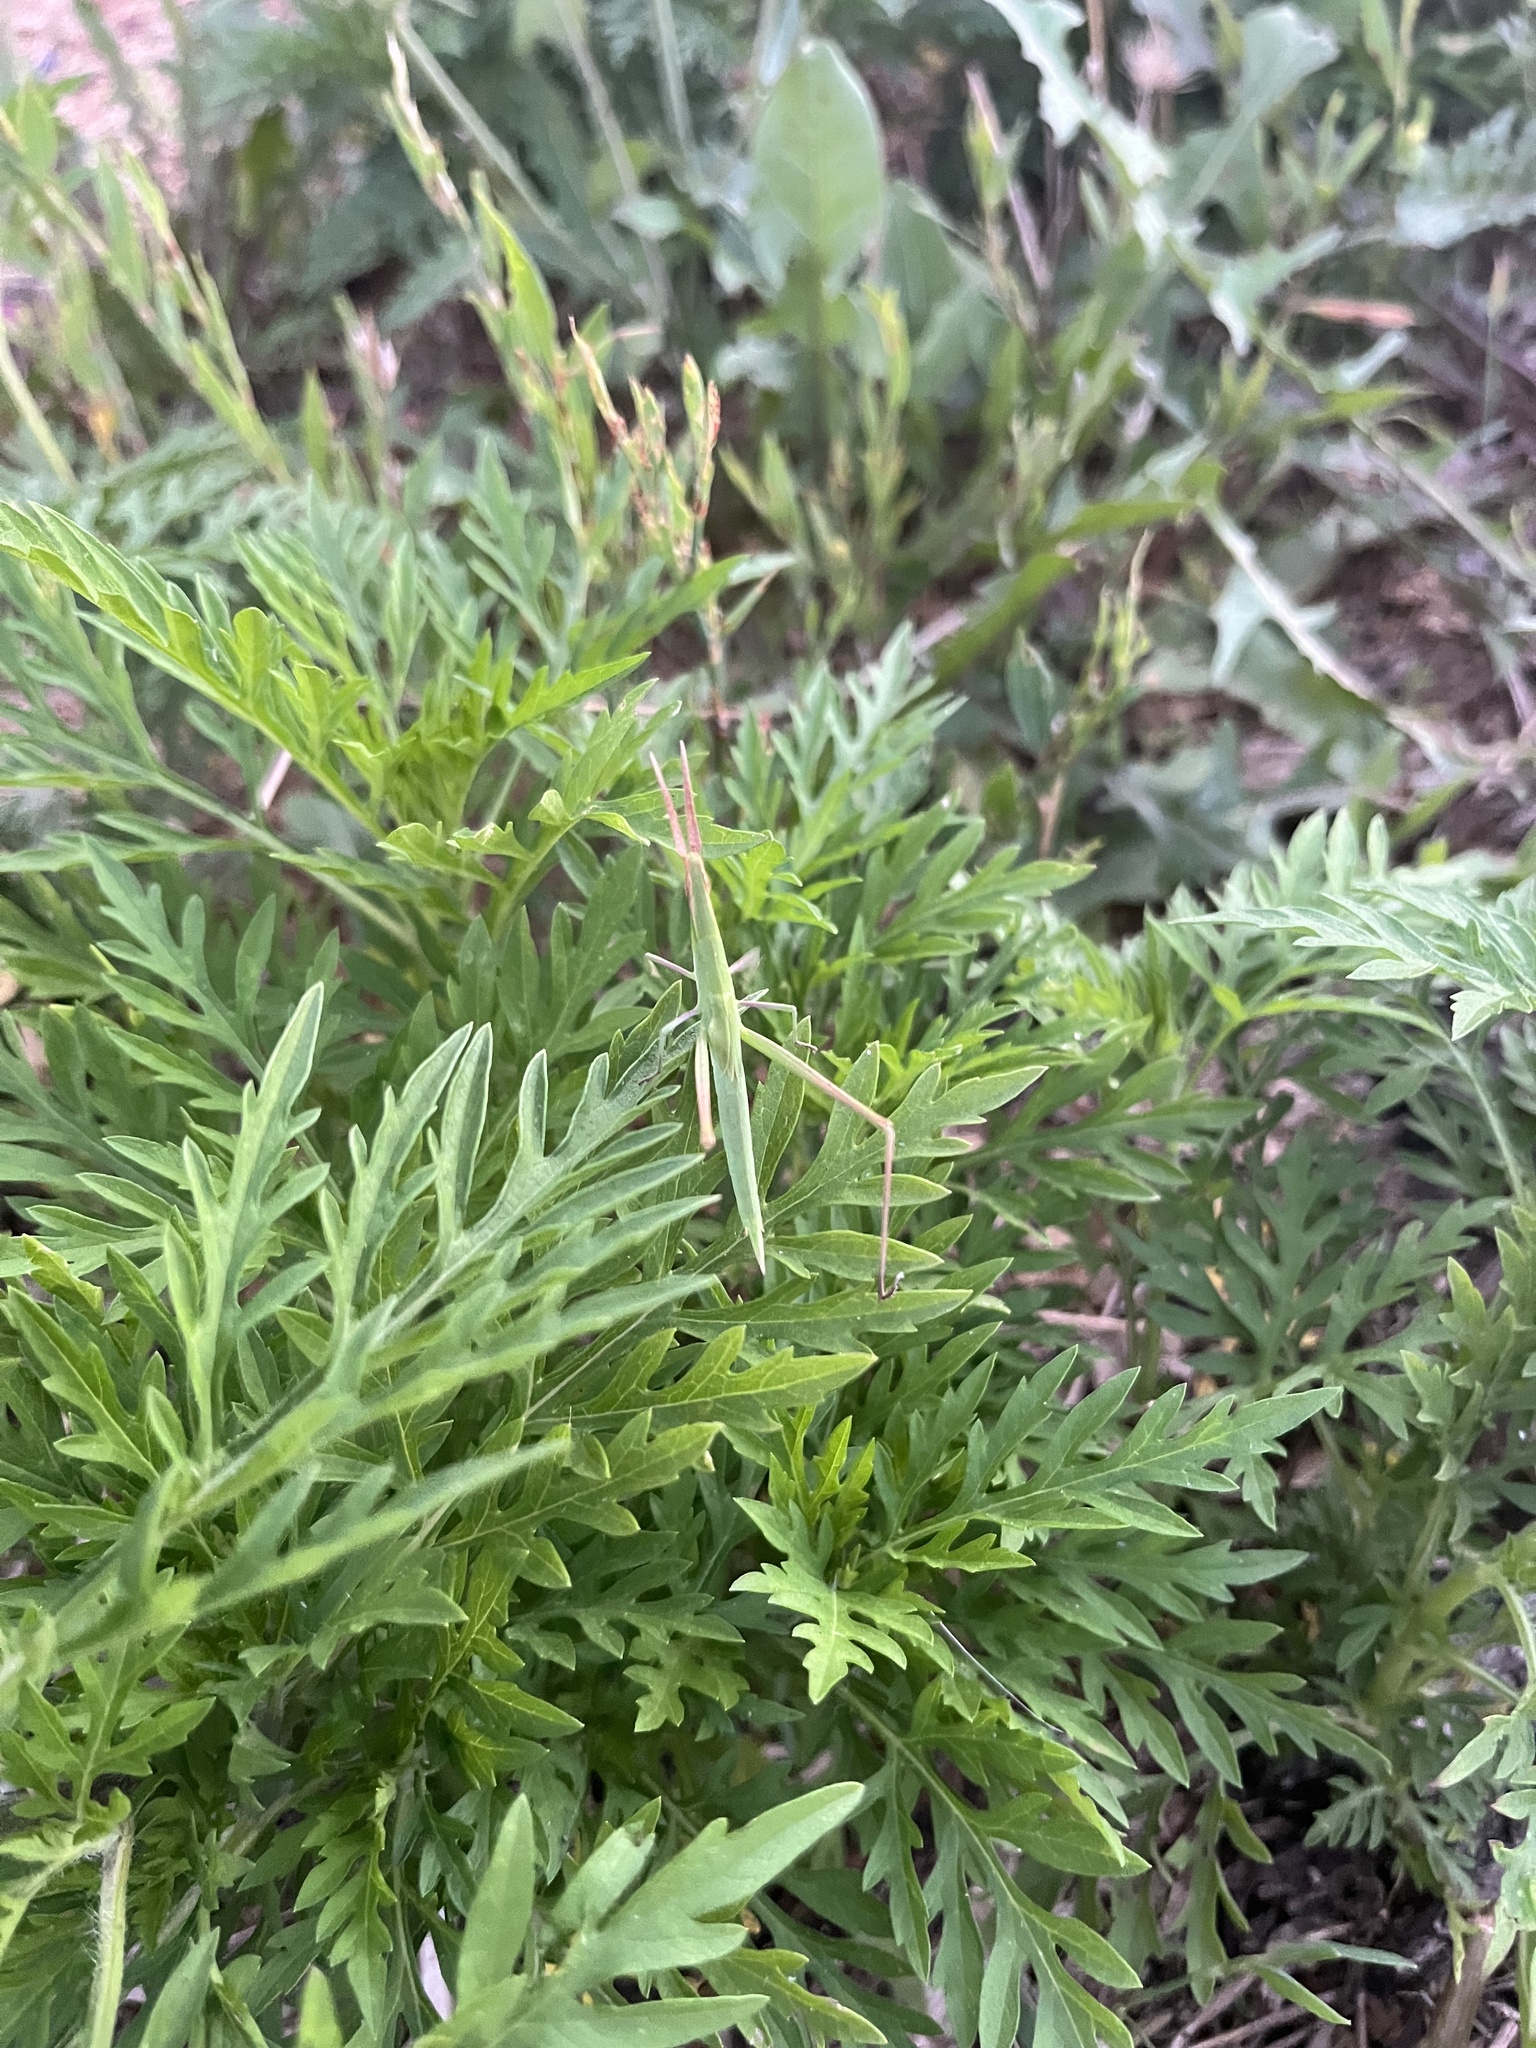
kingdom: Animalia
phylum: Arthropoda
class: Insecta
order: Orthoptera
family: Acrididae
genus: Acrida
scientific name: Acrida ungarica
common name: Common cone-headed grasshopper
